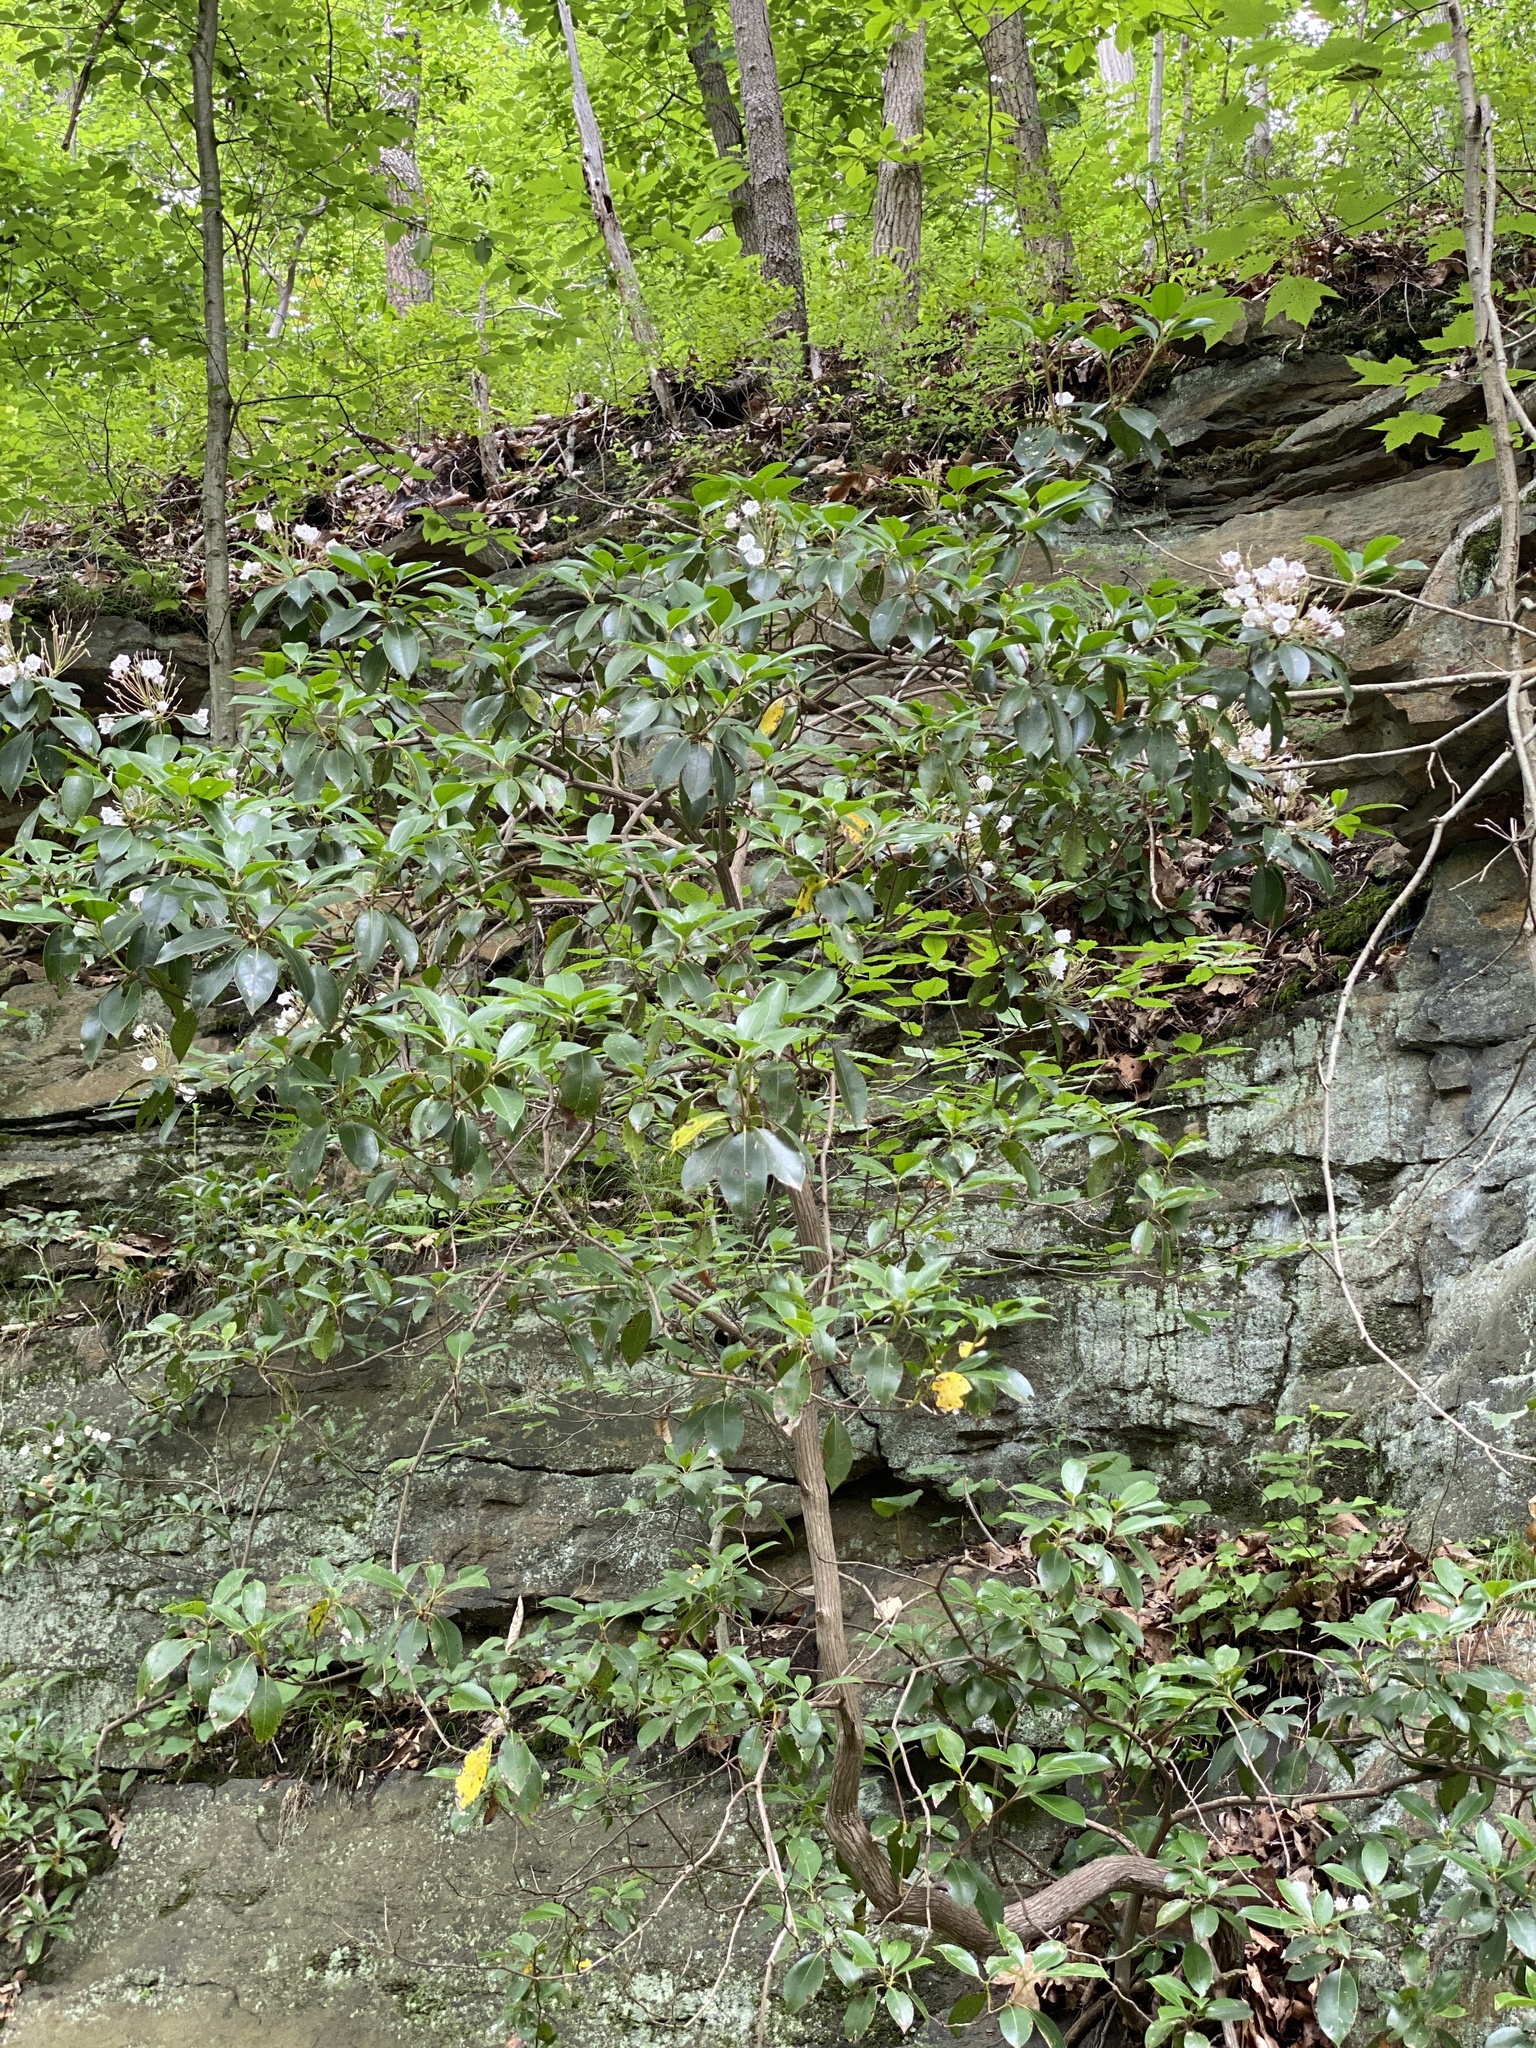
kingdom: Plantae
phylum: Tracheophyta
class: Magnoliopsida
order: Ericales
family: Ericaceae
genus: Kalmia
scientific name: Kalmia latifolia
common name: Mountain-laurel
